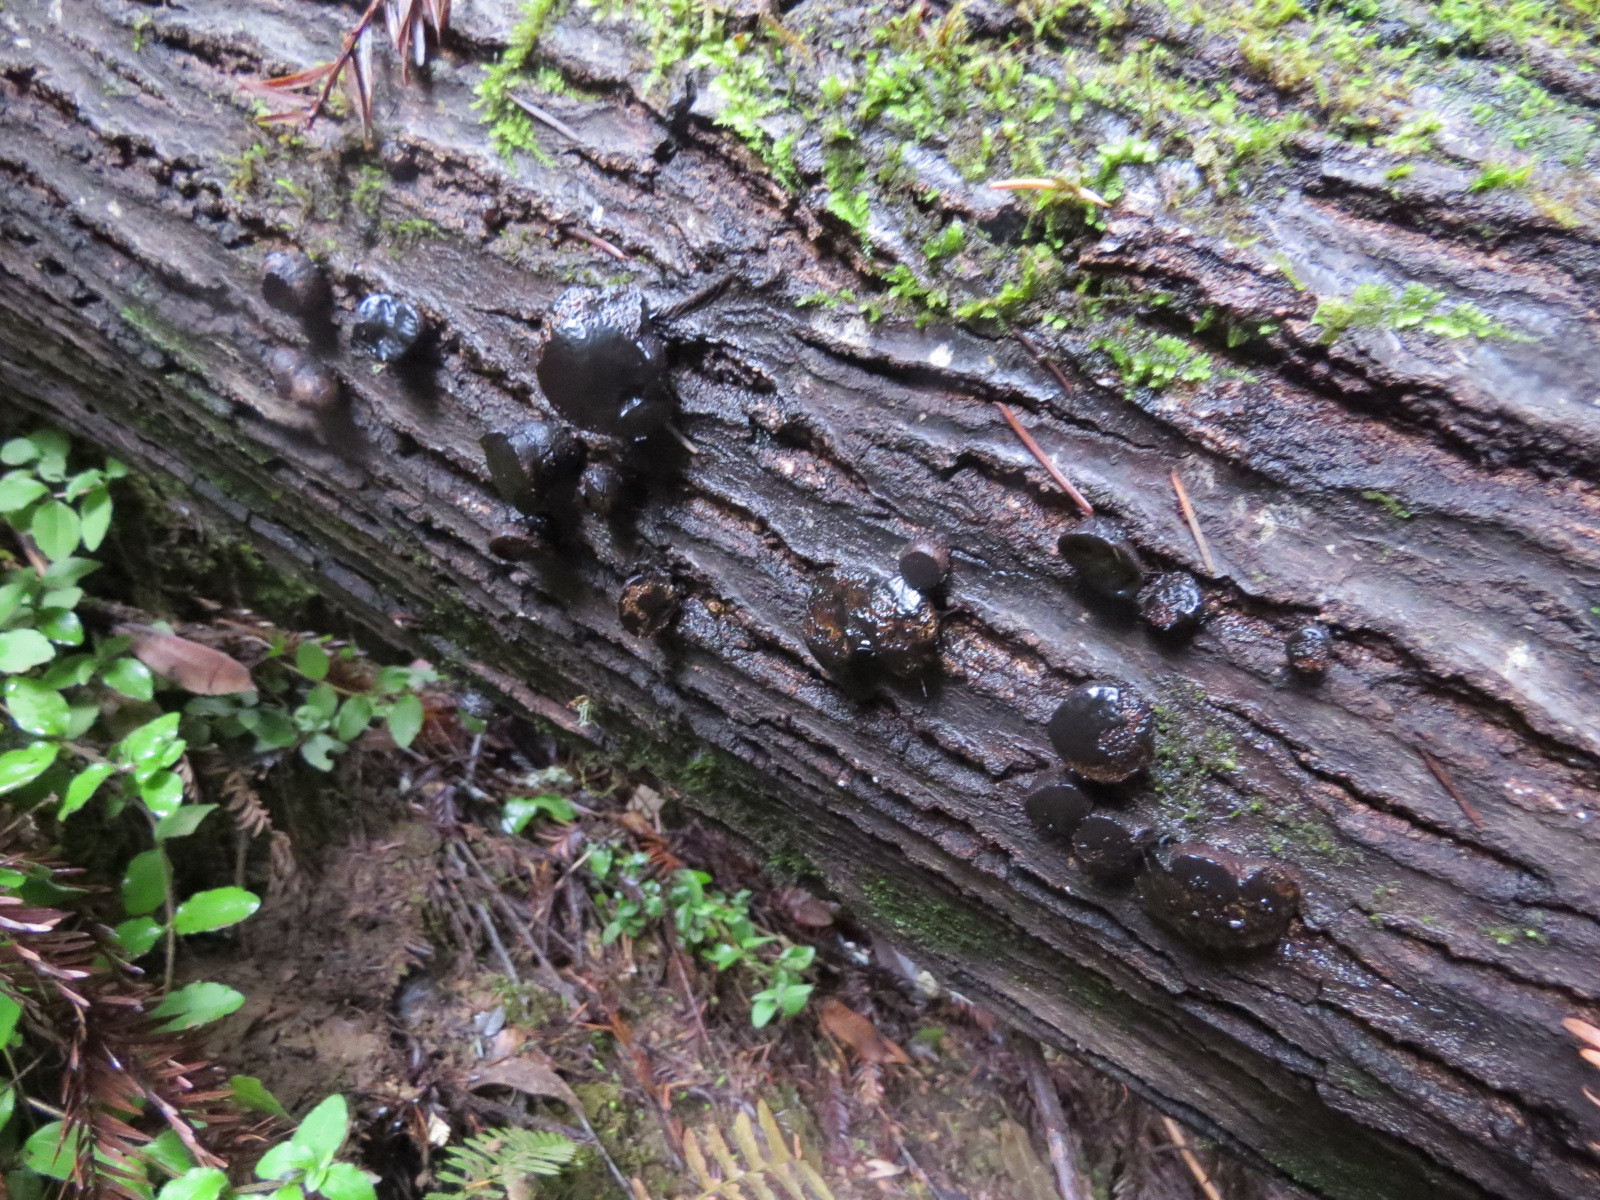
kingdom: Fungi
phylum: Ascomycota
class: Leotiomycetes
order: Phacidiales
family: Phacidiaceae
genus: Bulgaria
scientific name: Bulgaria inquinans
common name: Black bulgar
